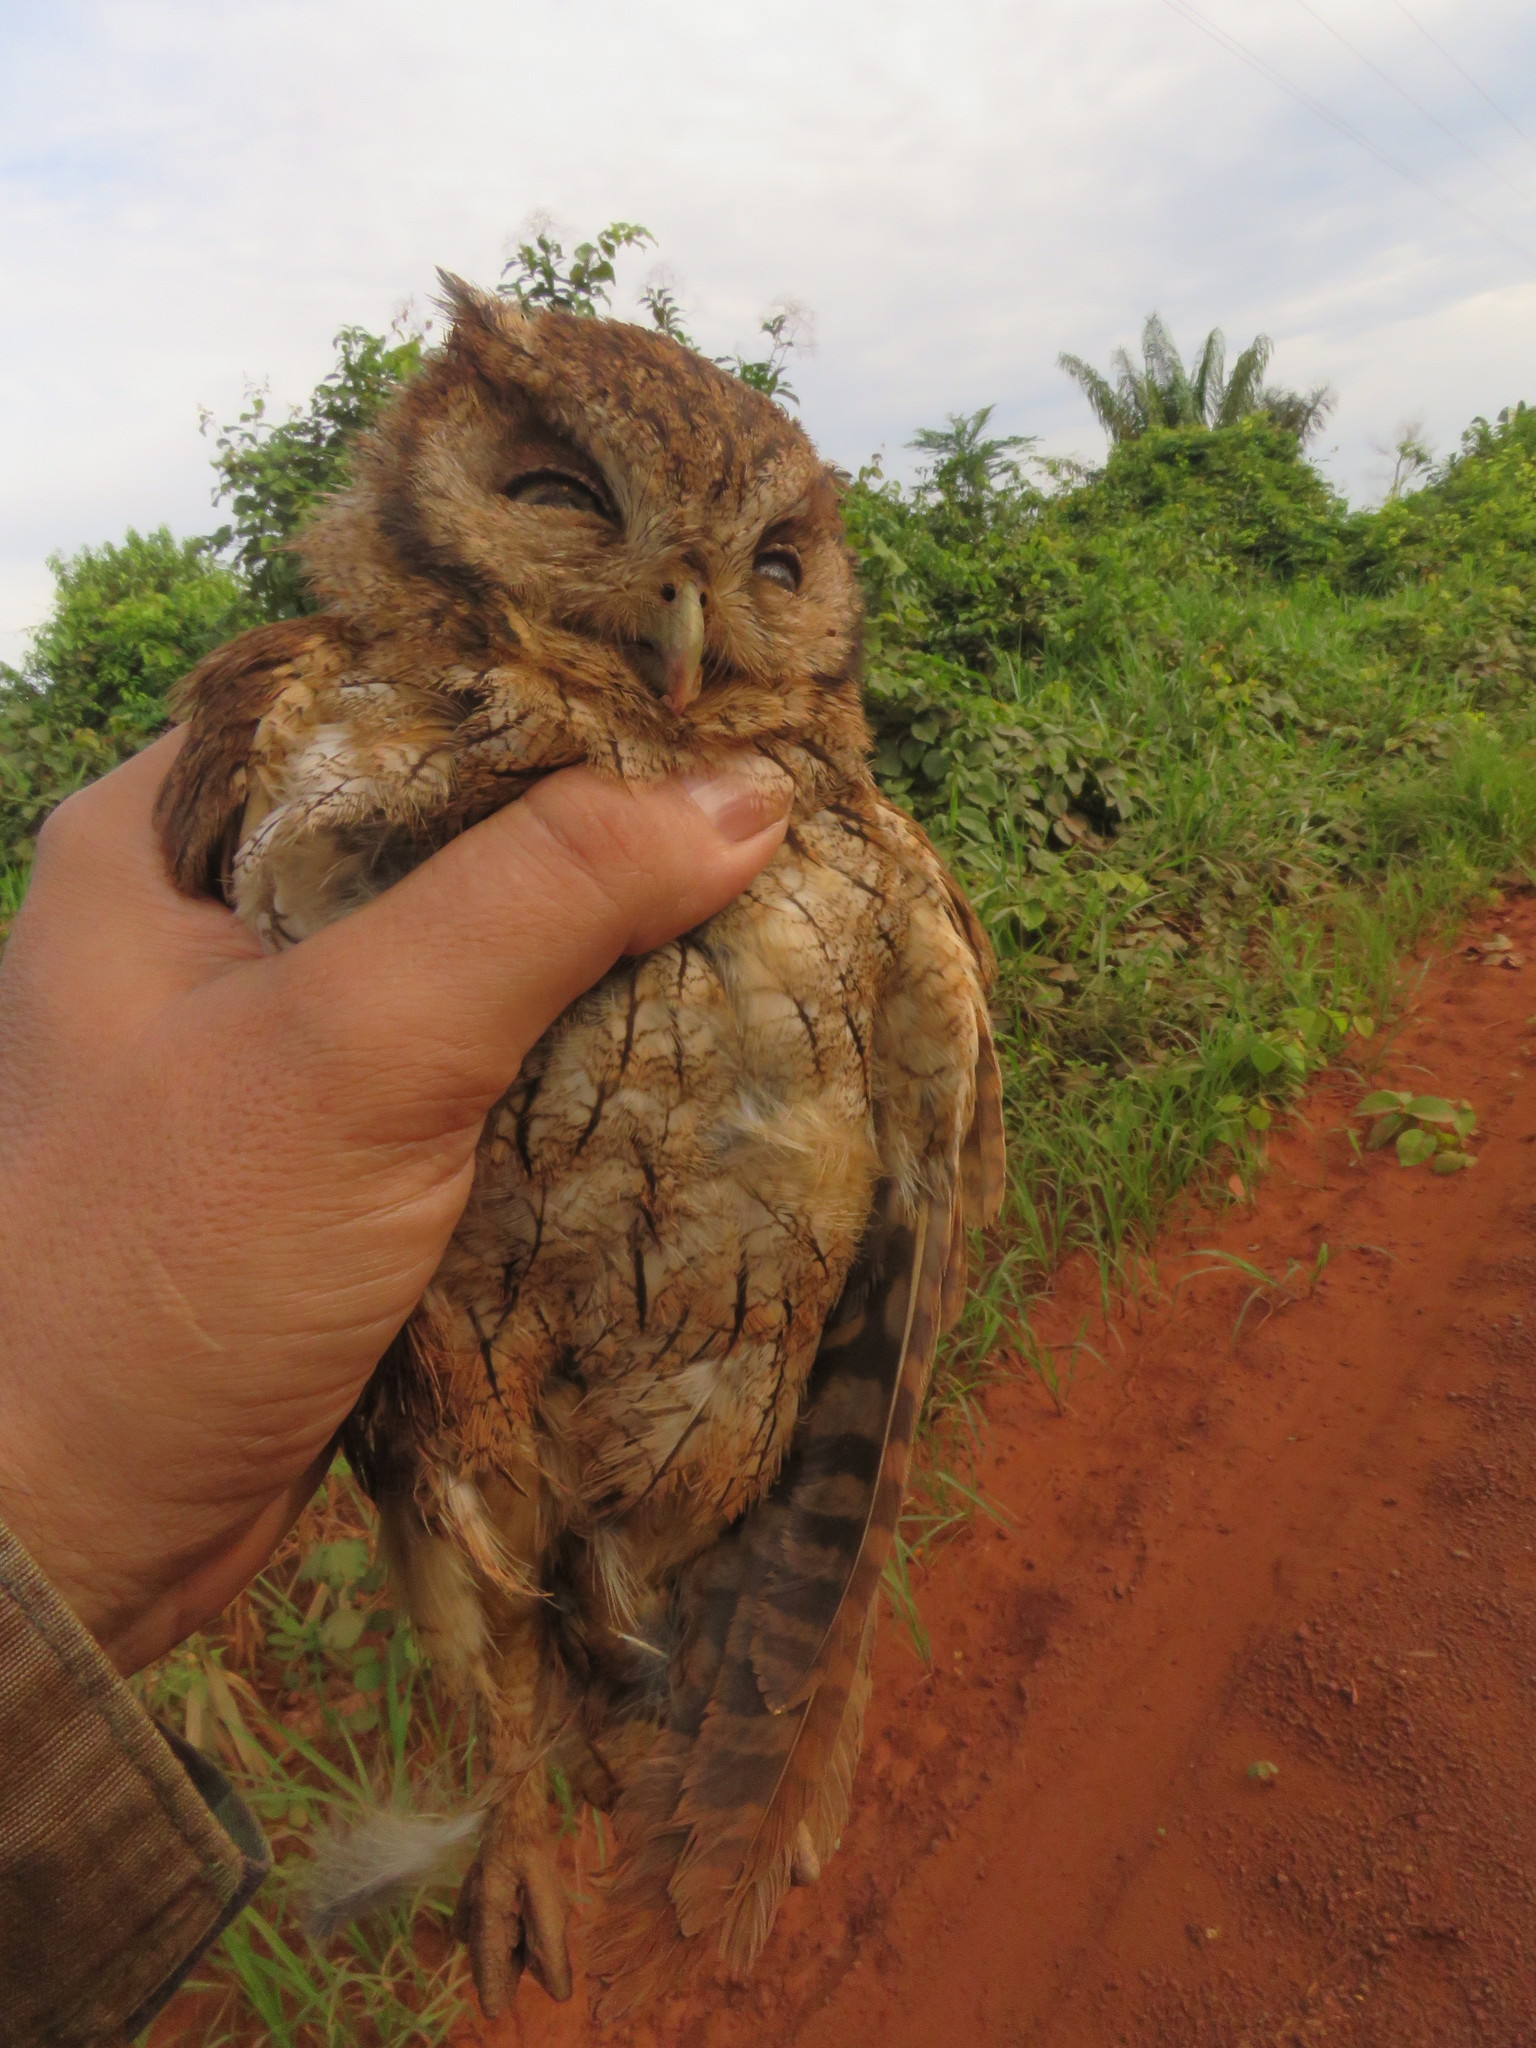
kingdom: Animalia
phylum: Chordata
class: Aves
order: Strigiformes
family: Strigidae
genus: Megascops
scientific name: Megascops watsonii
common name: Tawny-bellied screech-owl
